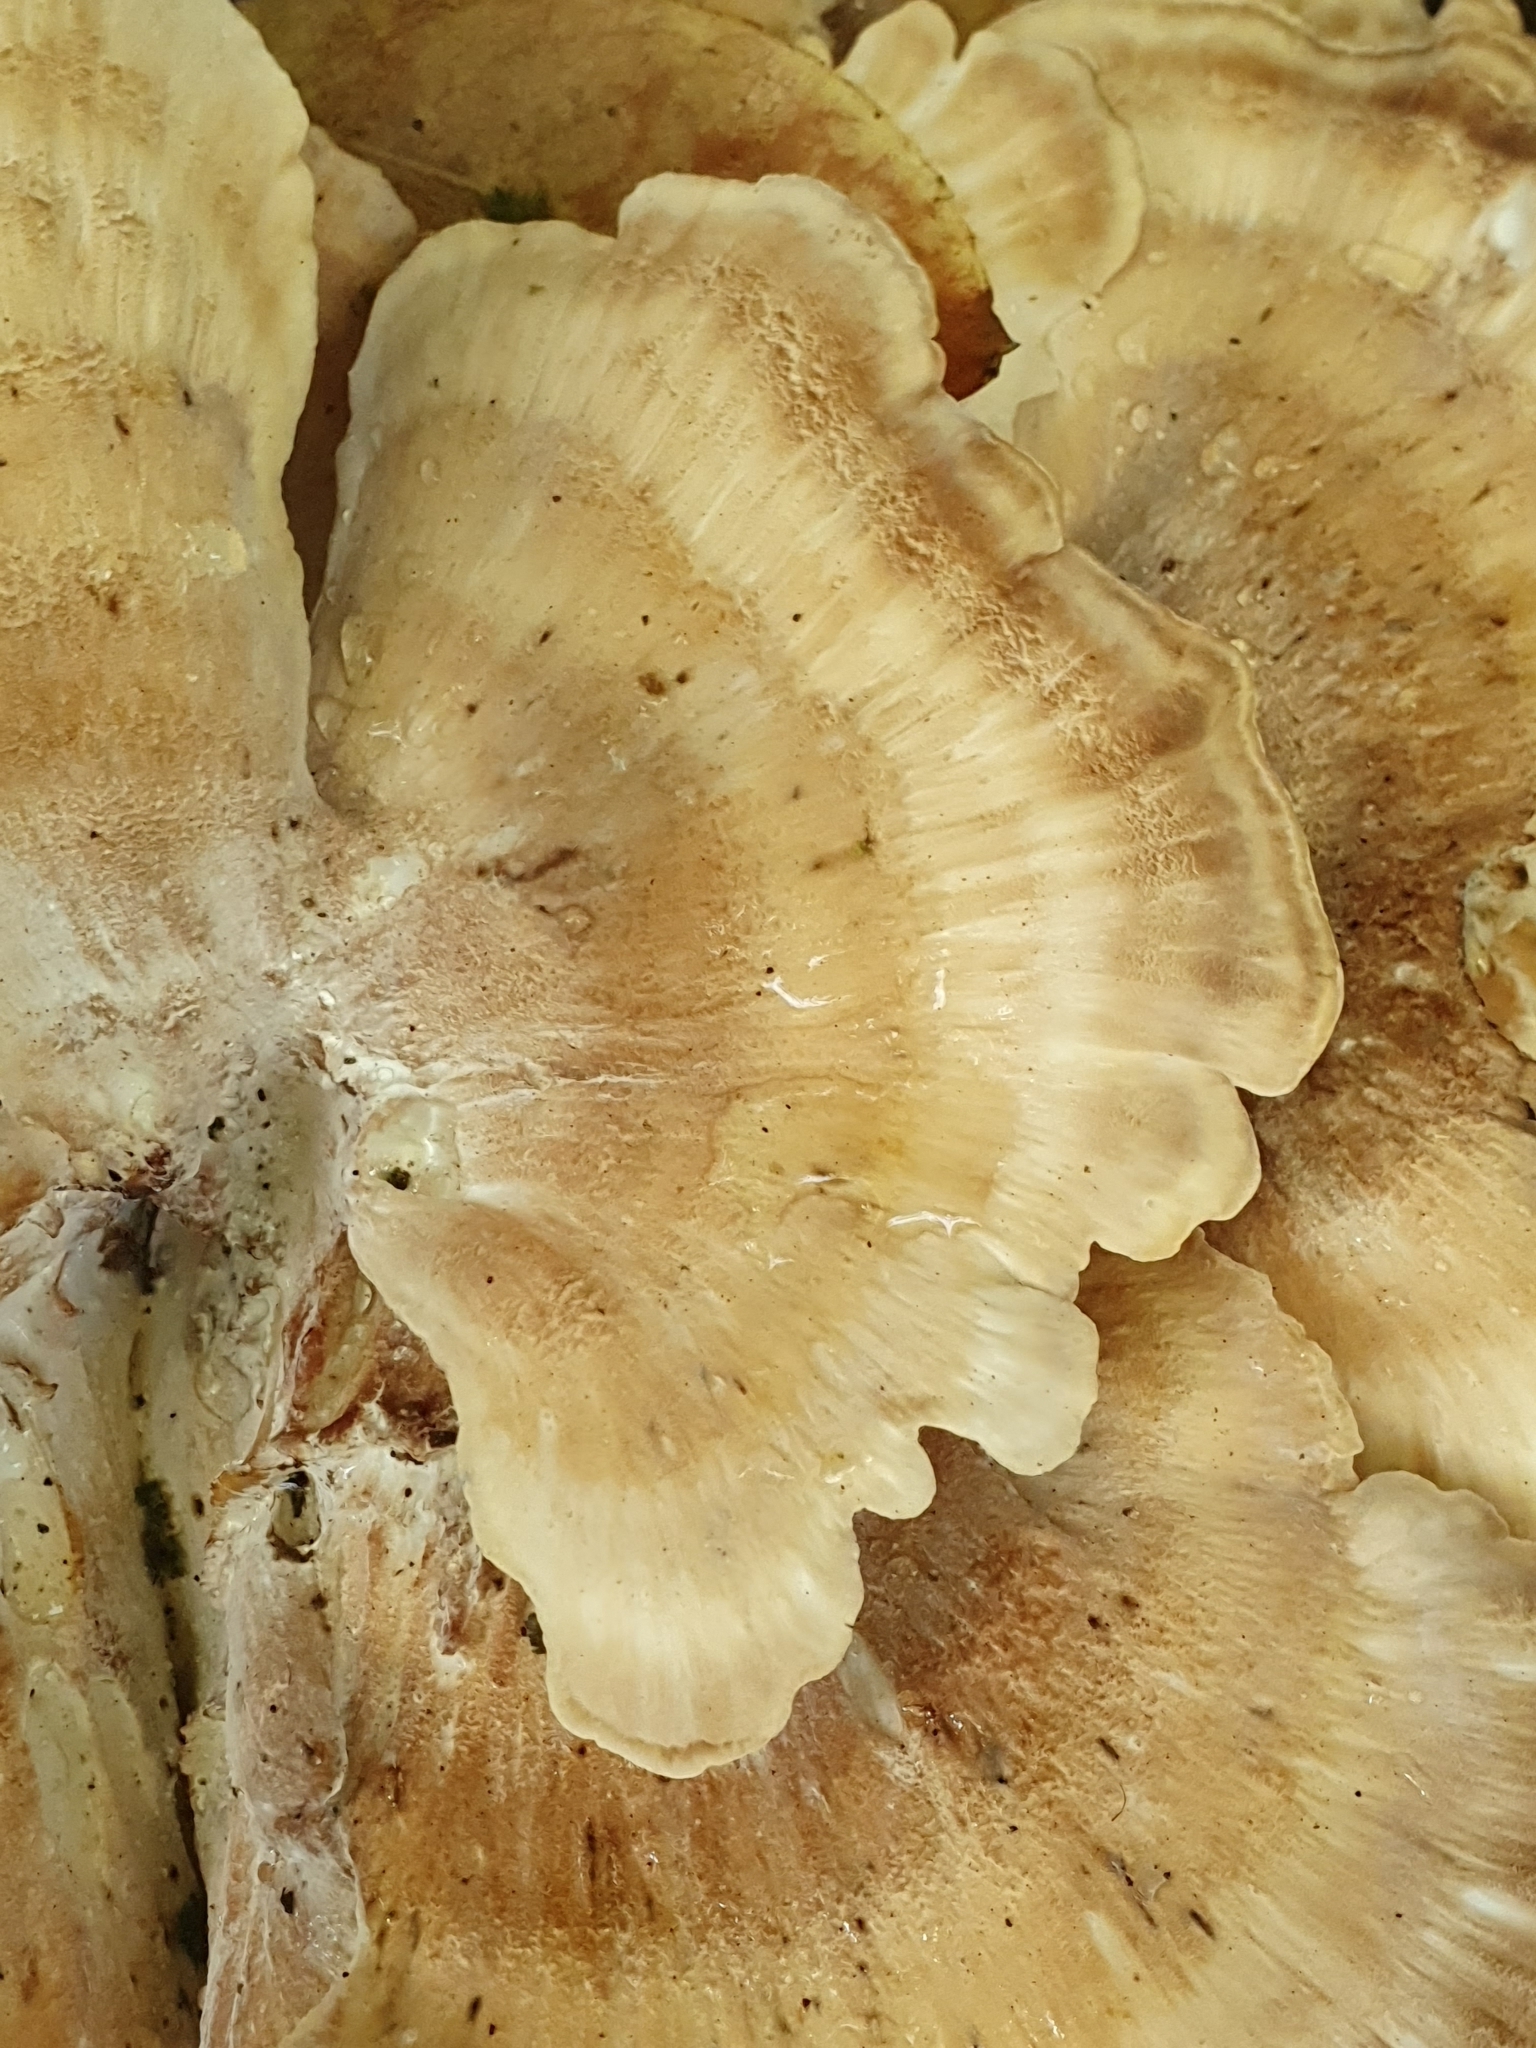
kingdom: Fungi
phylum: Basidiomycota
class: Agaricomycetes
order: Polyporales
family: Meripilaceae
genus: Meripilus
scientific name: Meripilus giganteus
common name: Giant polypore
